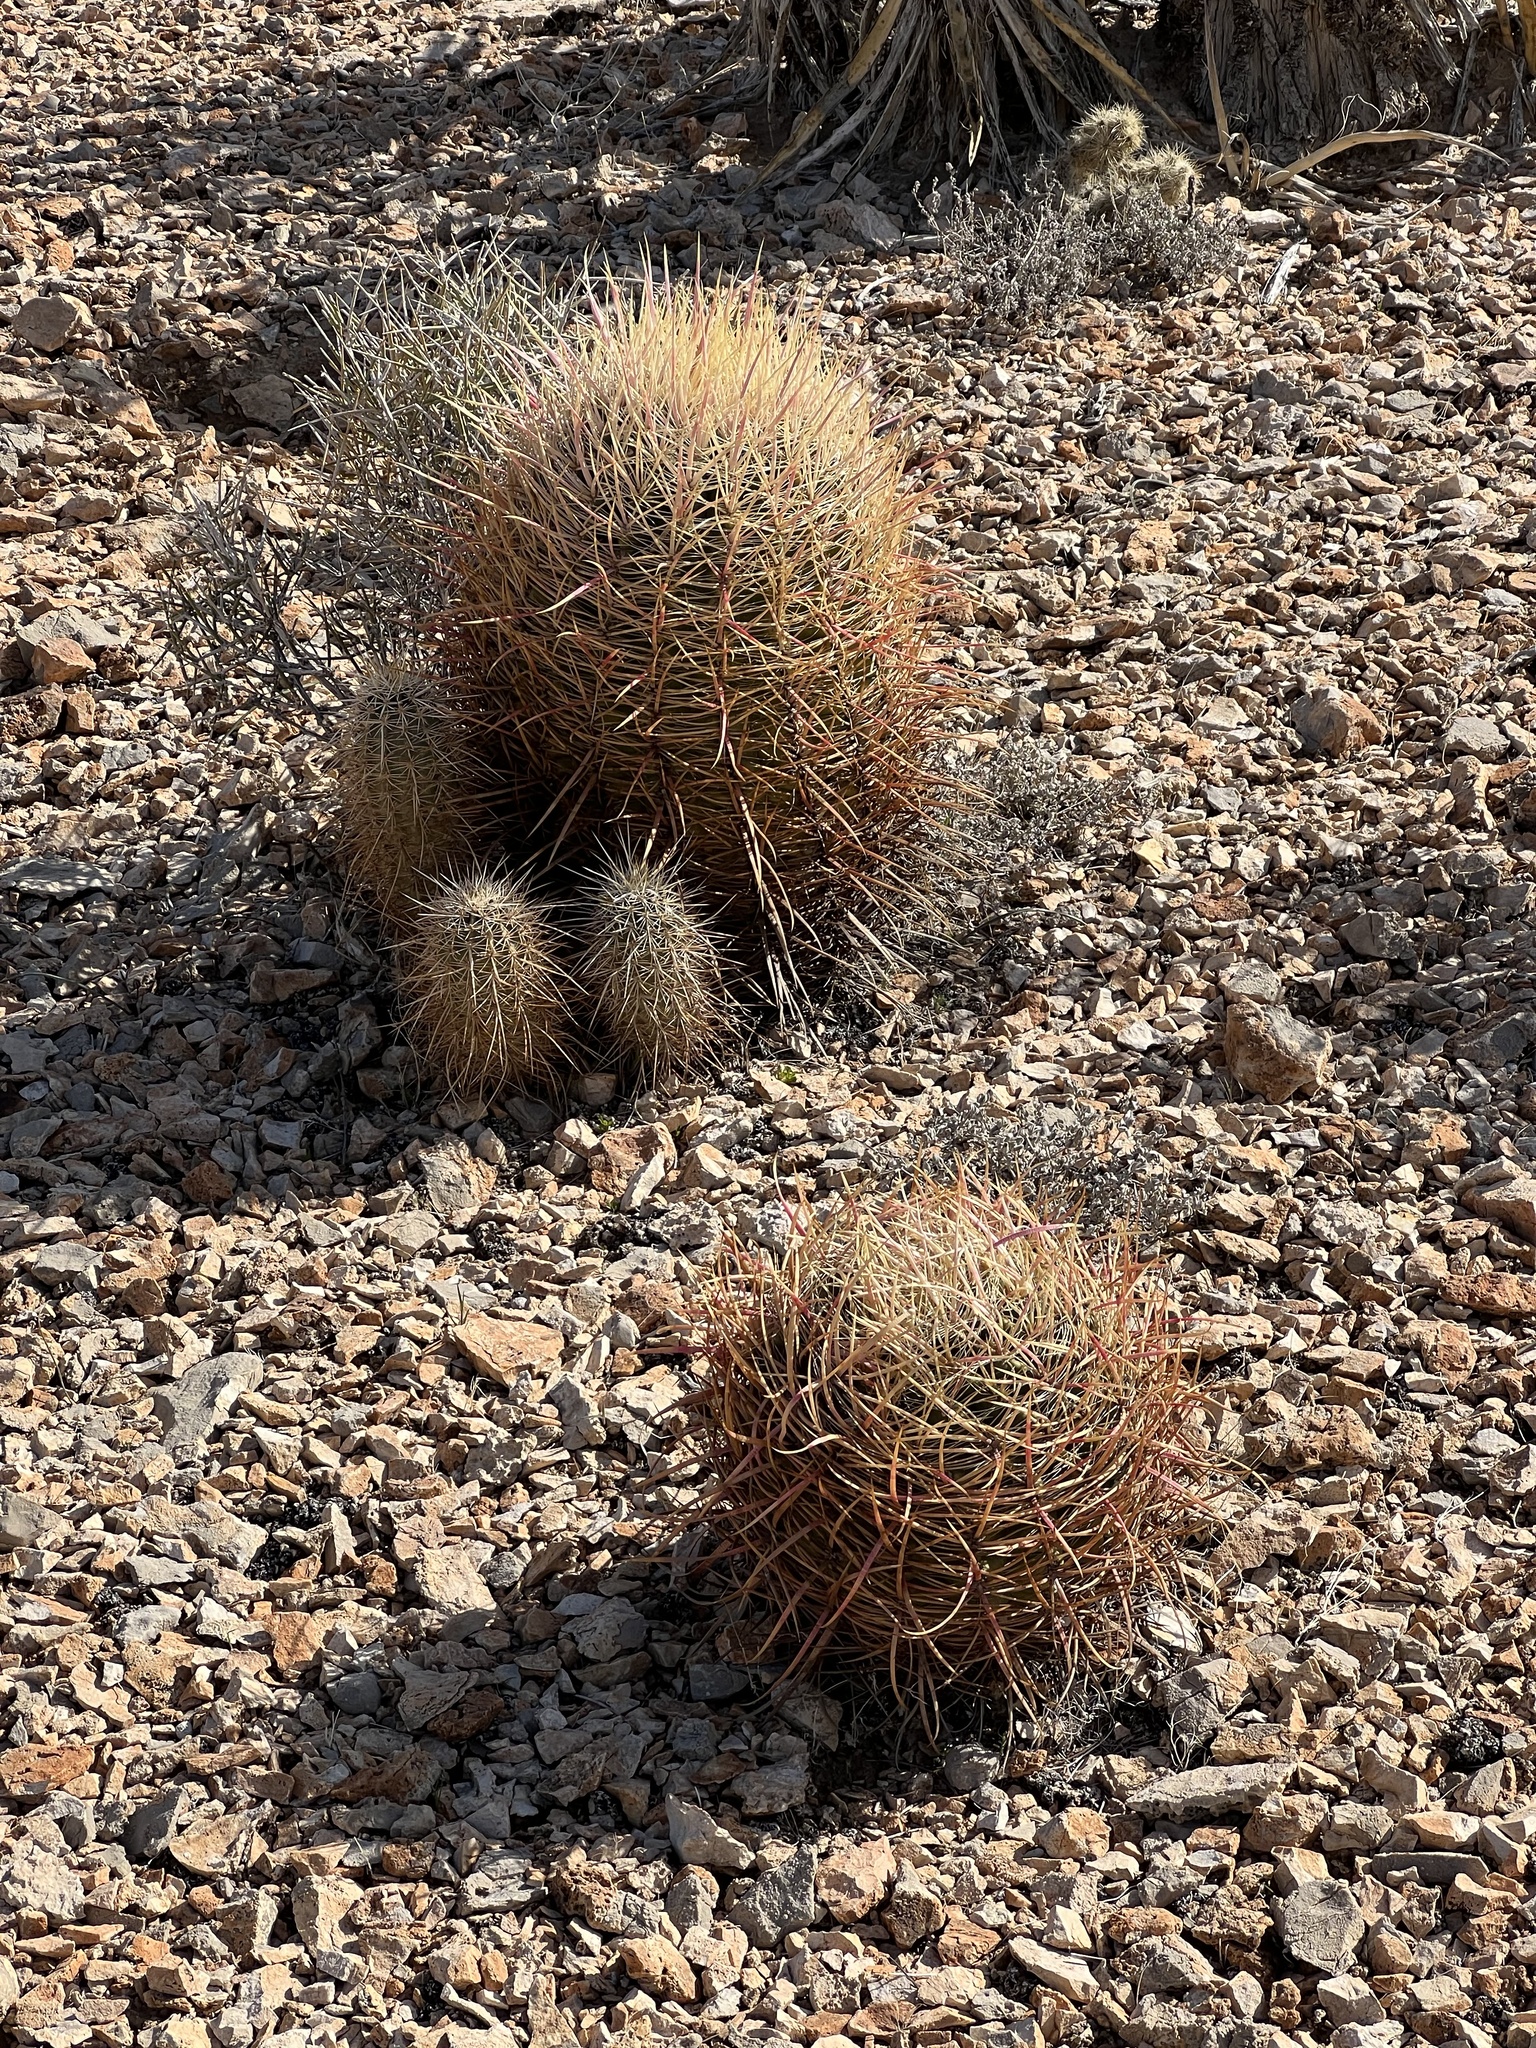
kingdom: Plantae
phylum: Tracheophyta
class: Magnoliopsida
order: Caryophyllales
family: Cactaceae
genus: Ferocactus
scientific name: Ferocactus cylindraceus
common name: California barrel cactus
